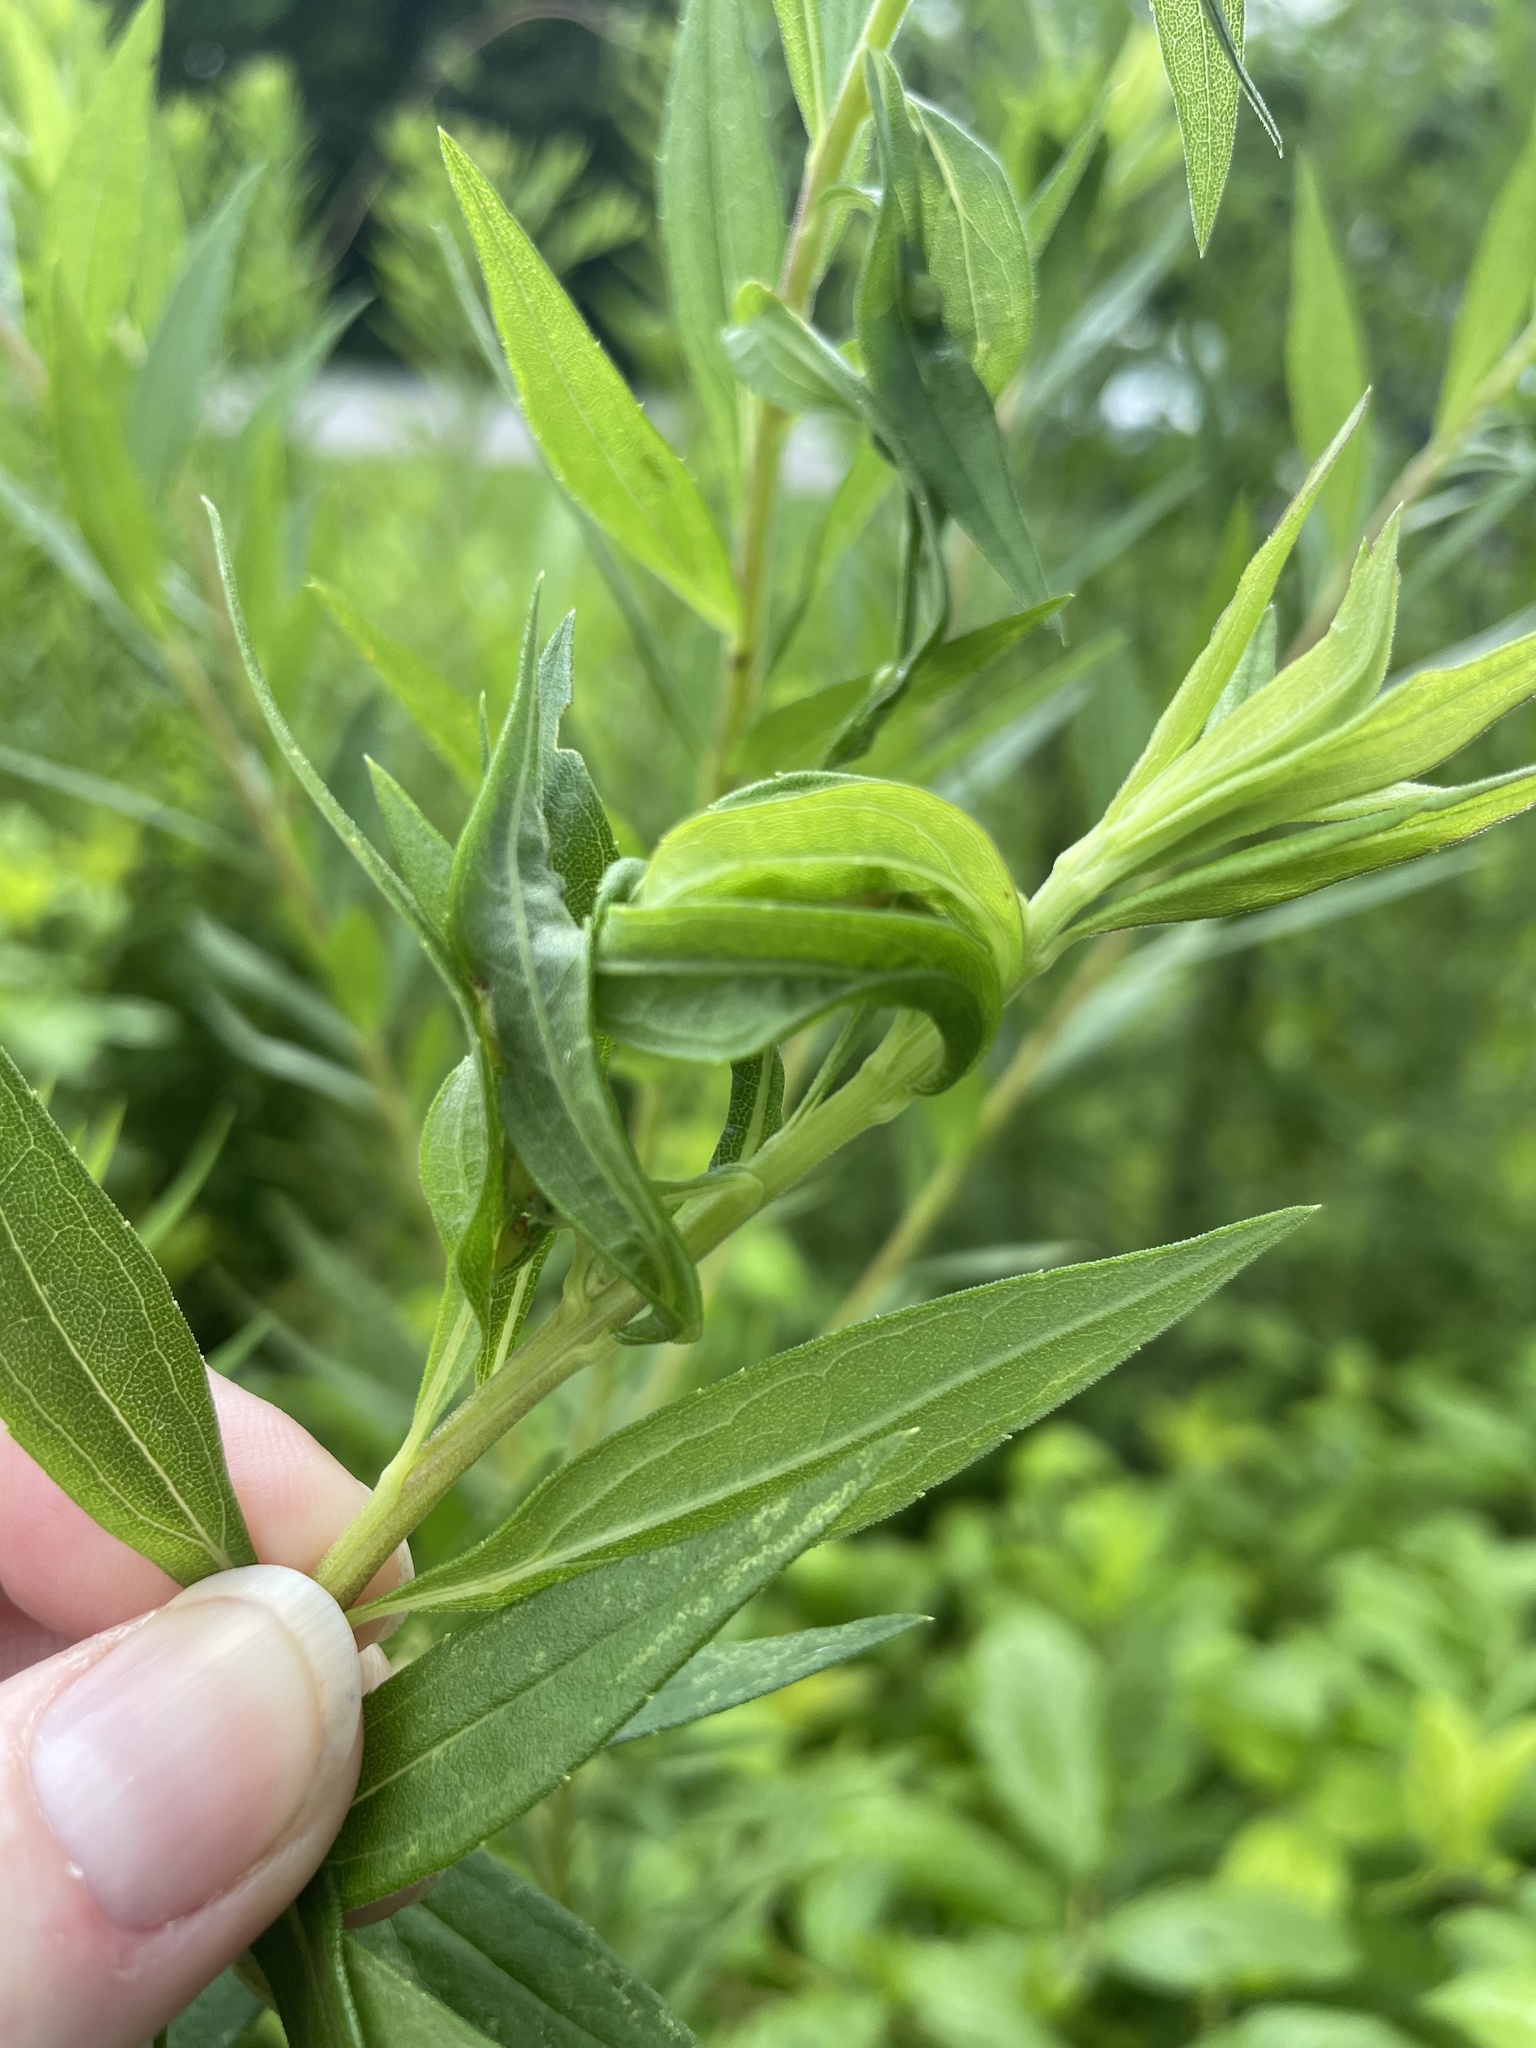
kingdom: Animalia
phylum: Arthropoda
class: Insecta
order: Diptera
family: Cecidomyiidae
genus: Asphondylia
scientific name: Asphondylia solidaginis
